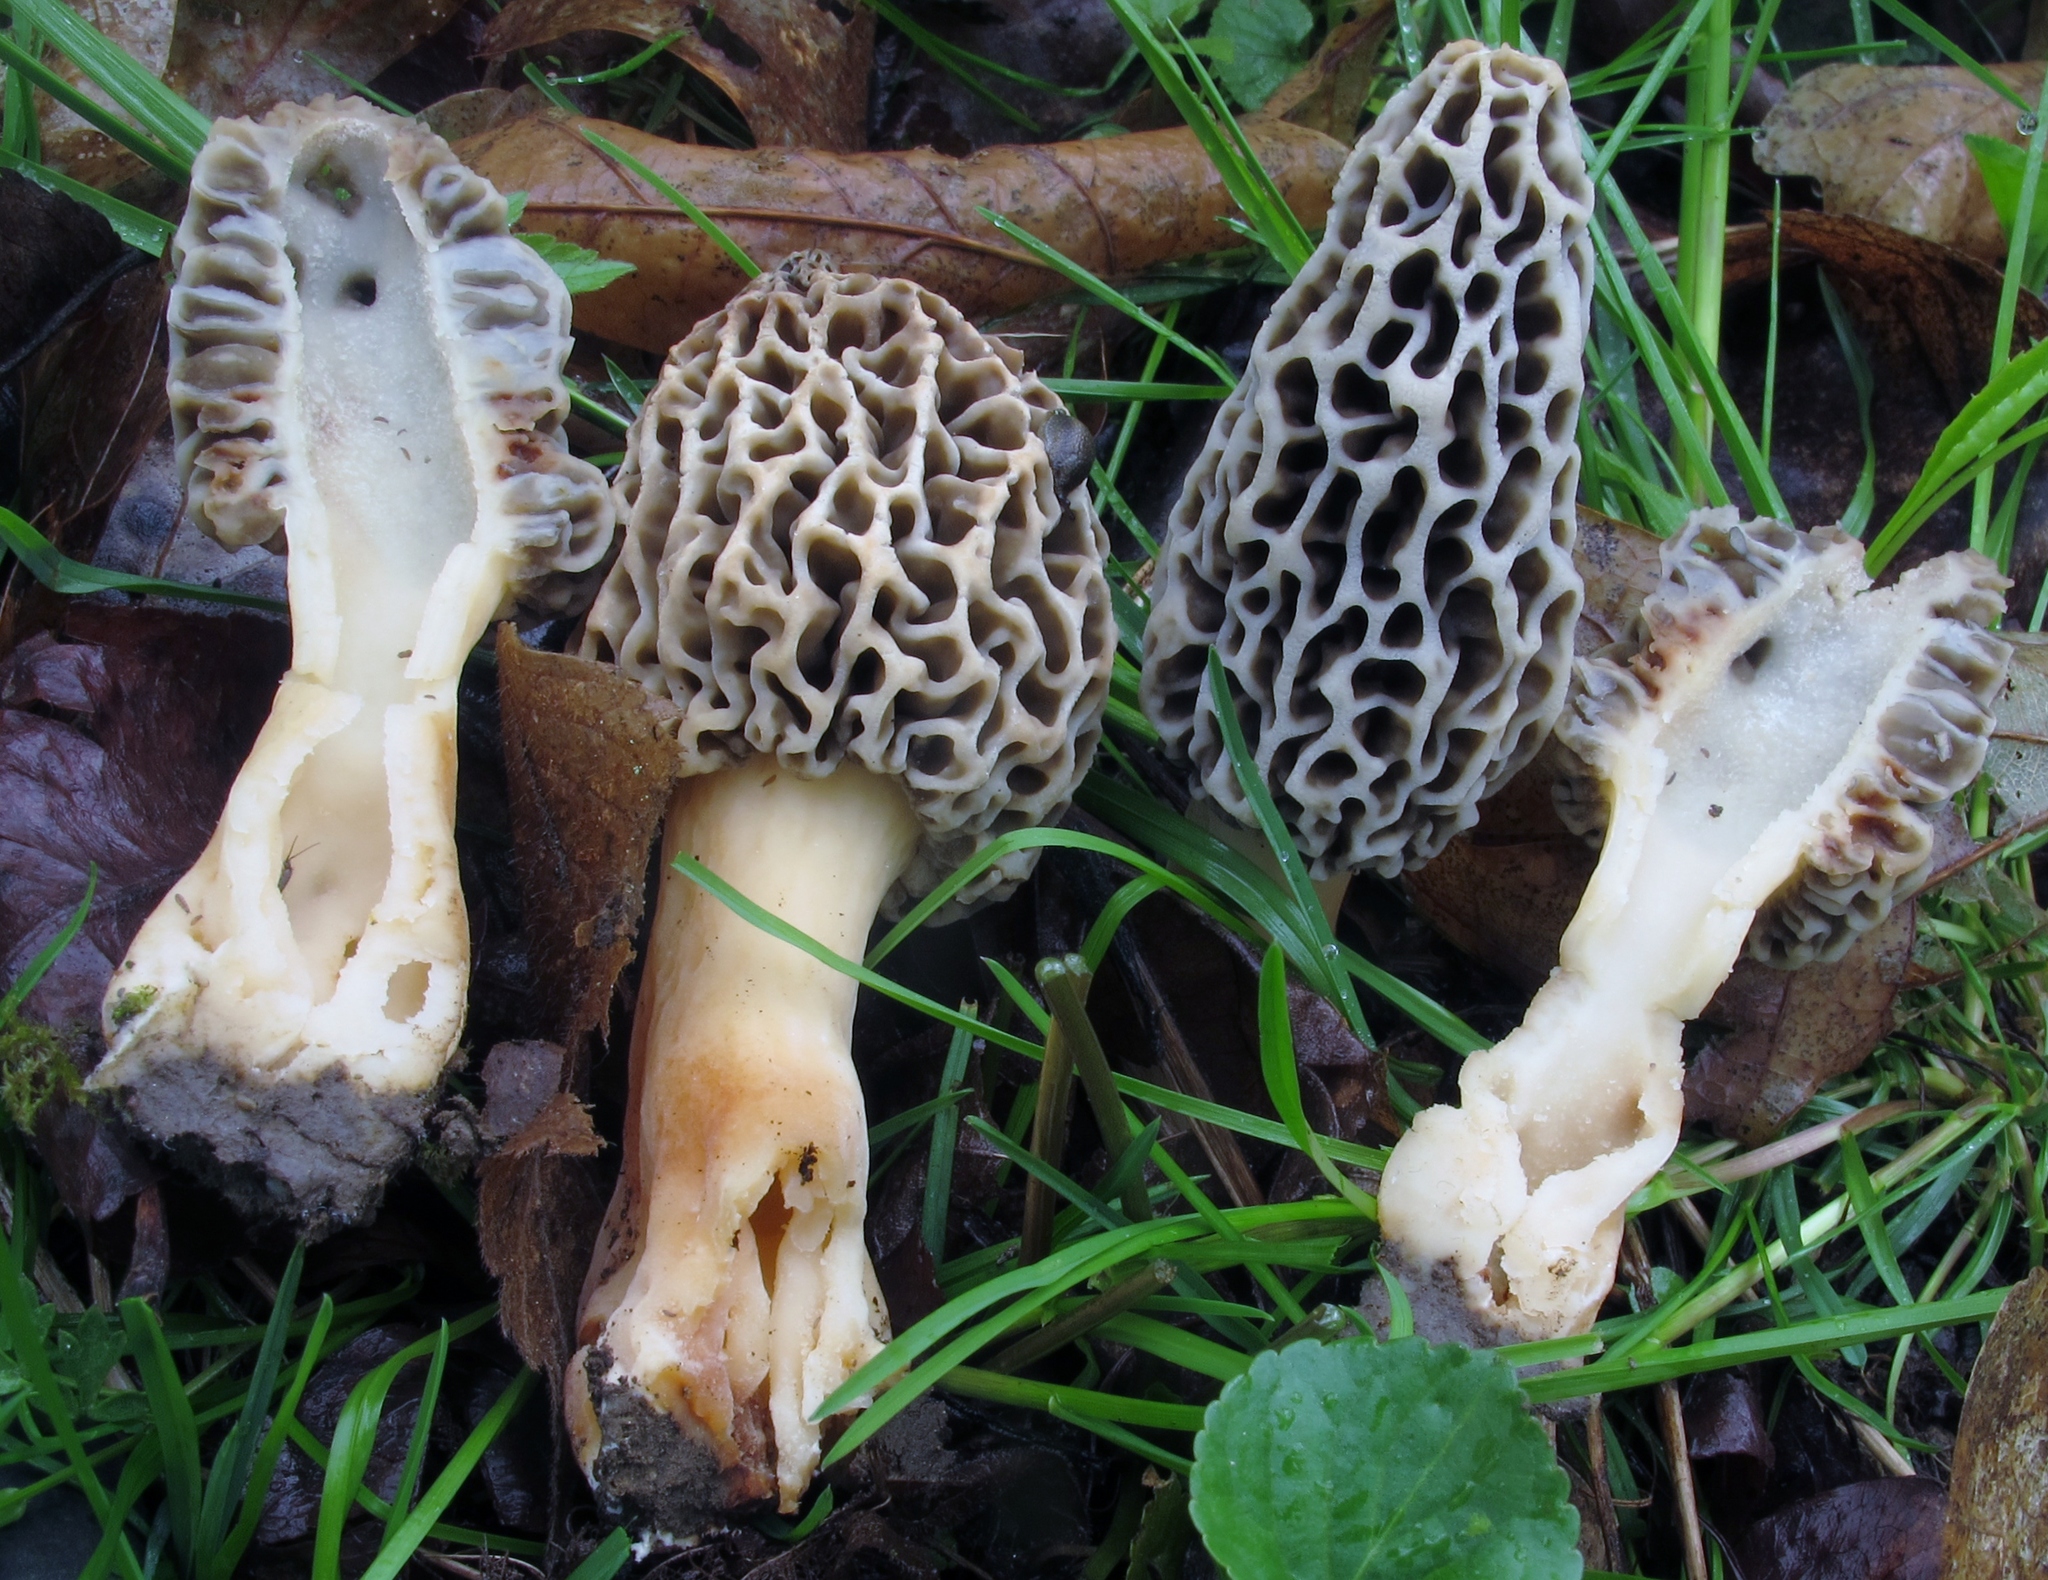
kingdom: Fungi
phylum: Ascomycota
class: Pezizomycetes
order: Pezizales
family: Morchellaceae
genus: Morchella
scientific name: Morchella americana
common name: White morel
